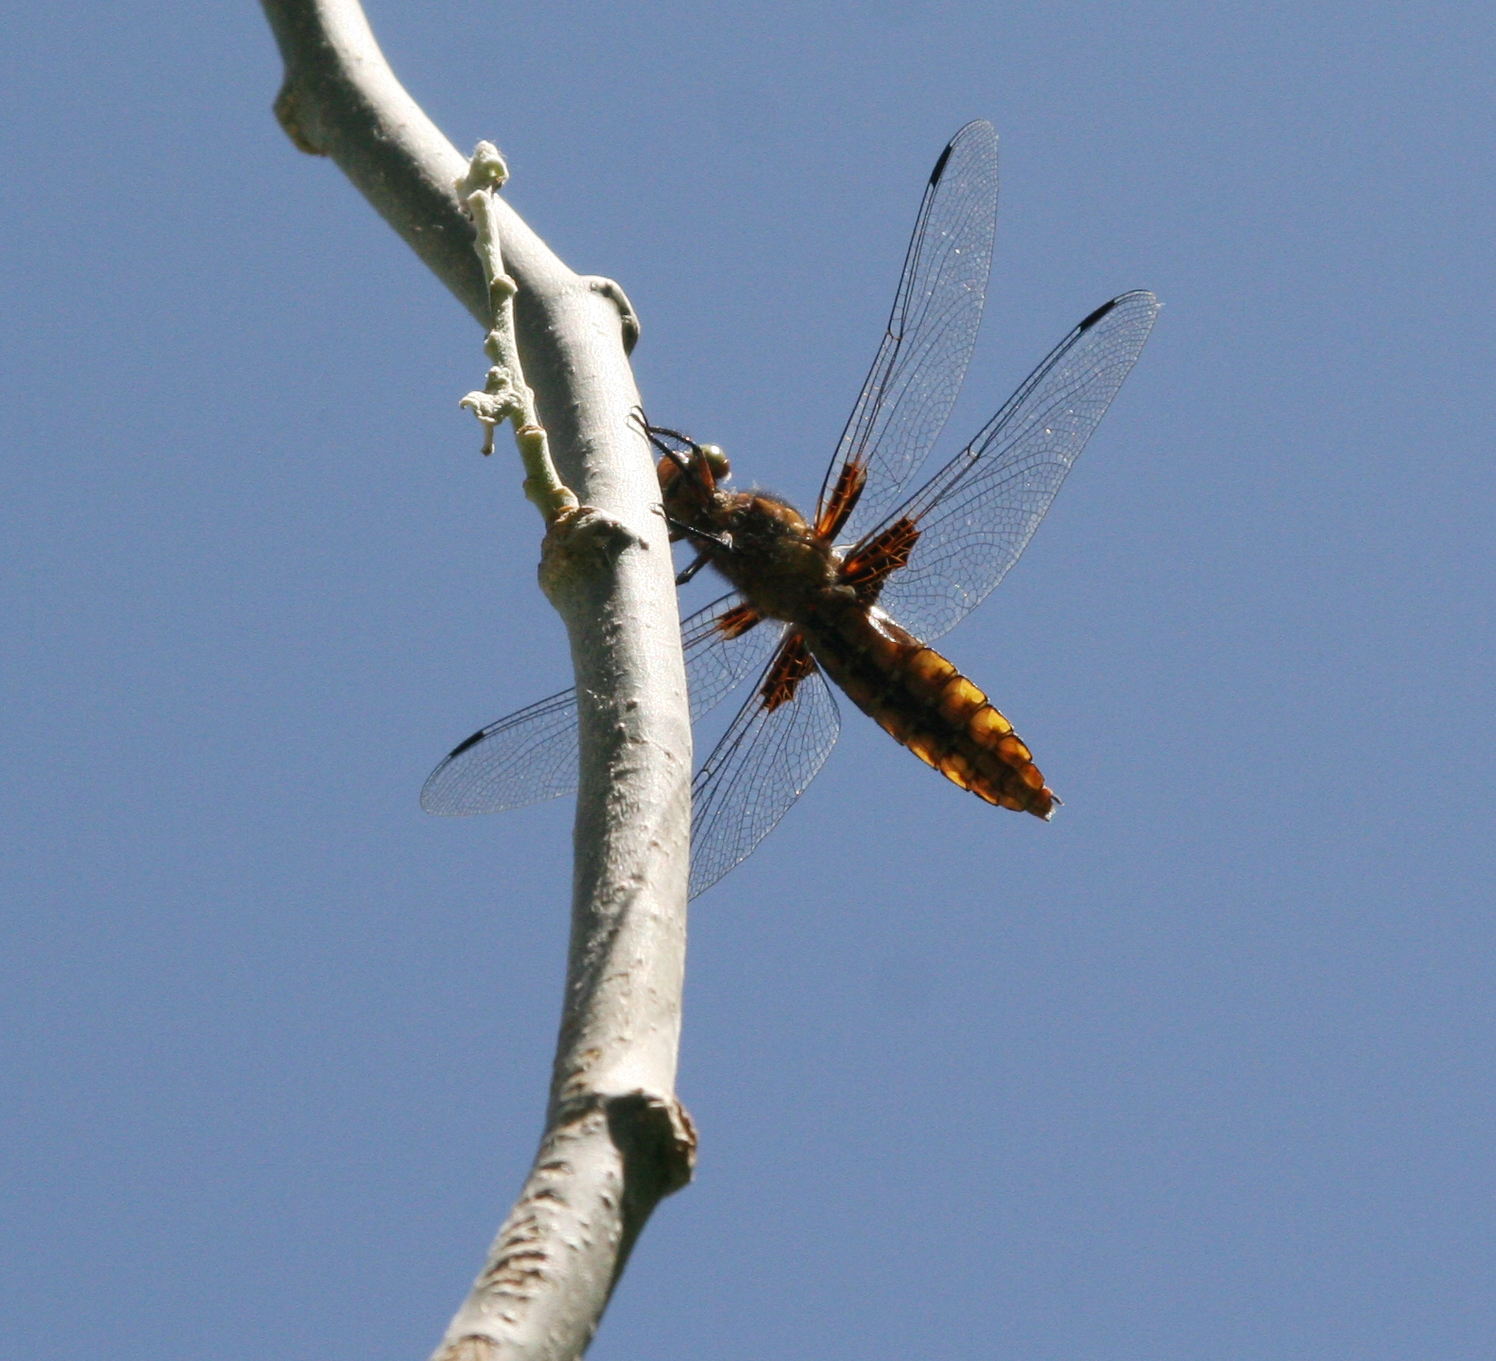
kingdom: Animalia
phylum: Arthropoda
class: Insecta
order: Odonata
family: Libellulidae
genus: Libellula
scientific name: Libellula depressa
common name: Broad-bodied chaser
